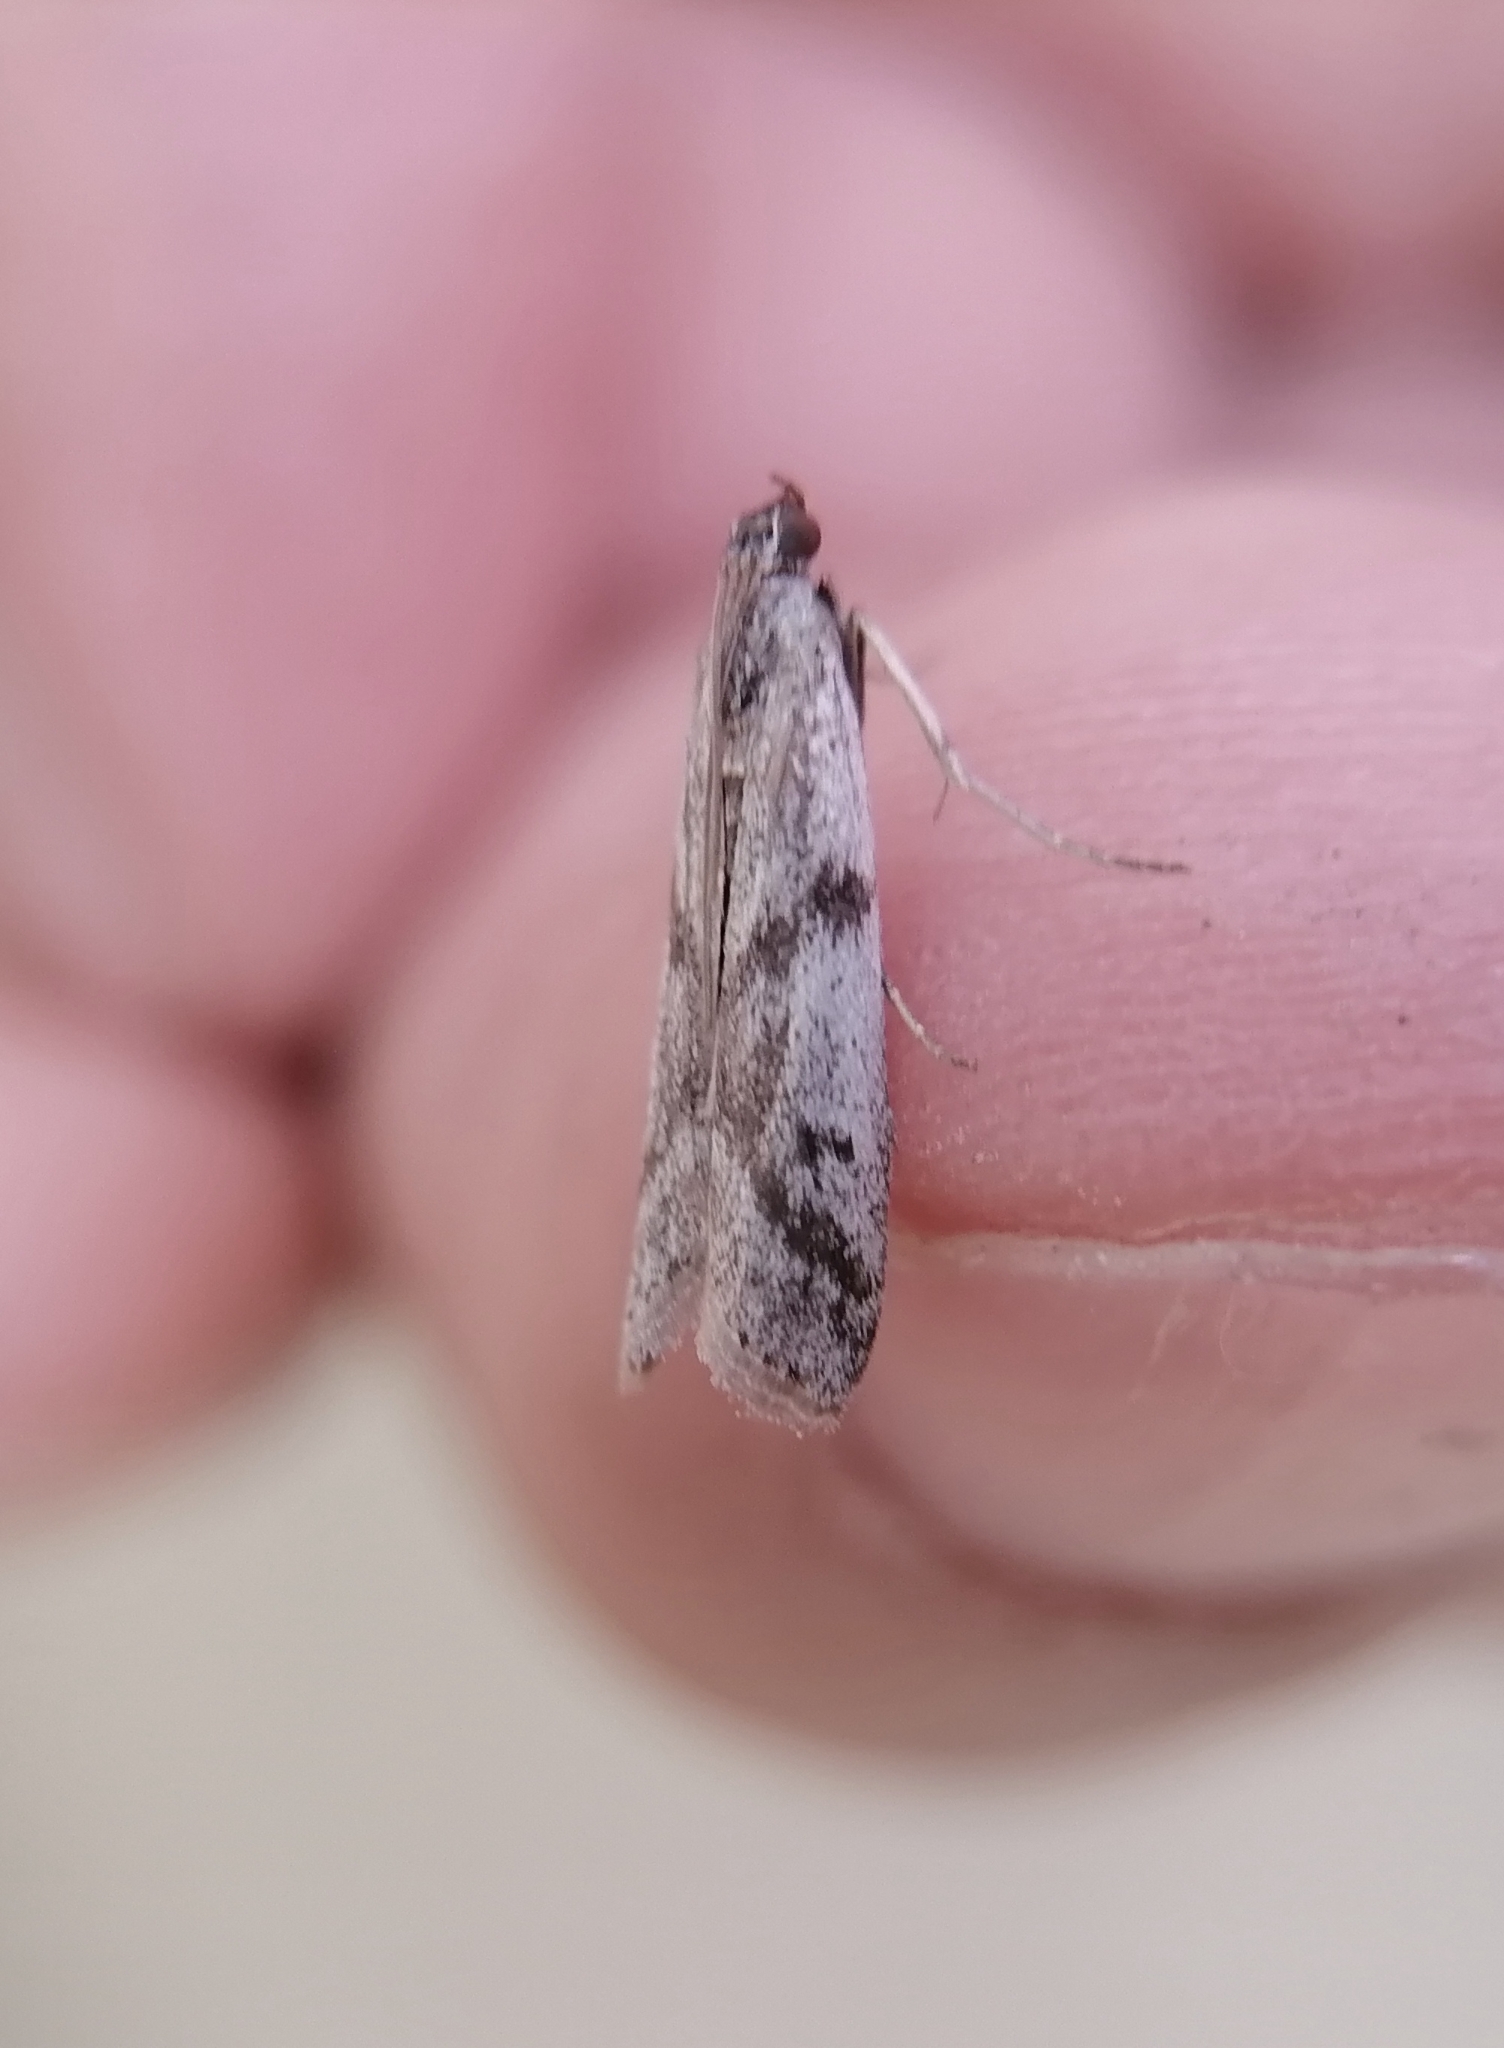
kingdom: Animalia
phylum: Arthropoda
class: Insecta
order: Lepidoptera
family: Pyralidae
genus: Phycitodes
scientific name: Phycitodes binaevella
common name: Ermine knot-horn
